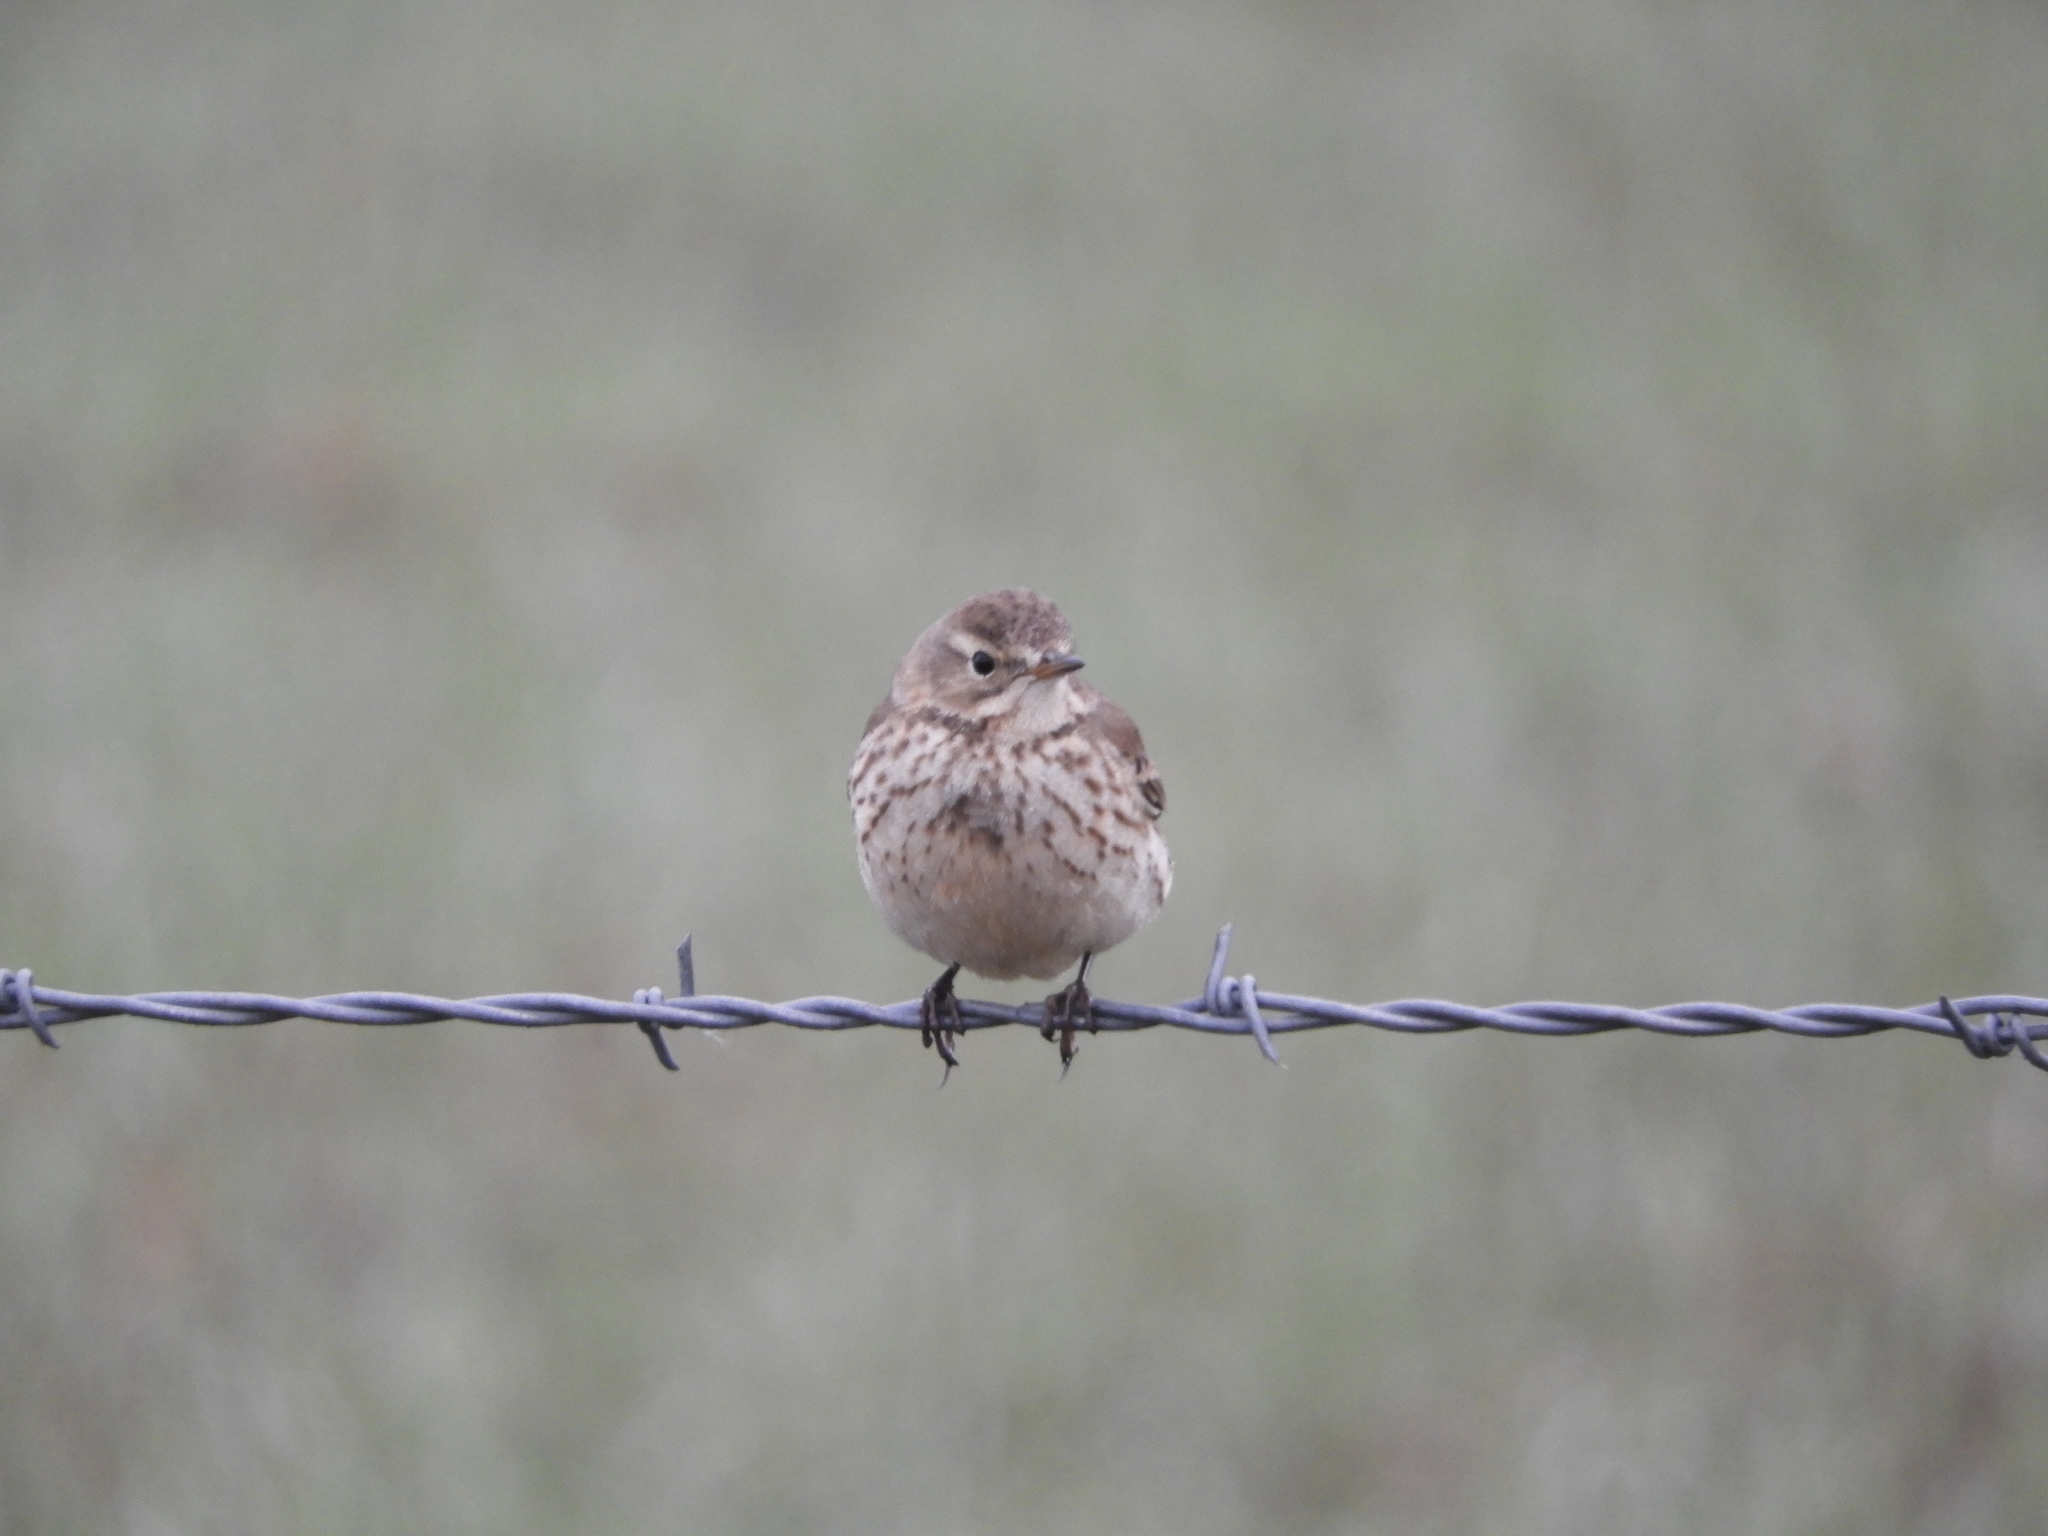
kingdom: Animalia
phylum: Chordata
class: Aves
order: Passeriformes
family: Motacillidae
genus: Anthus
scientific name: Anthus rubescens
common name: Buff-bellied pipit
